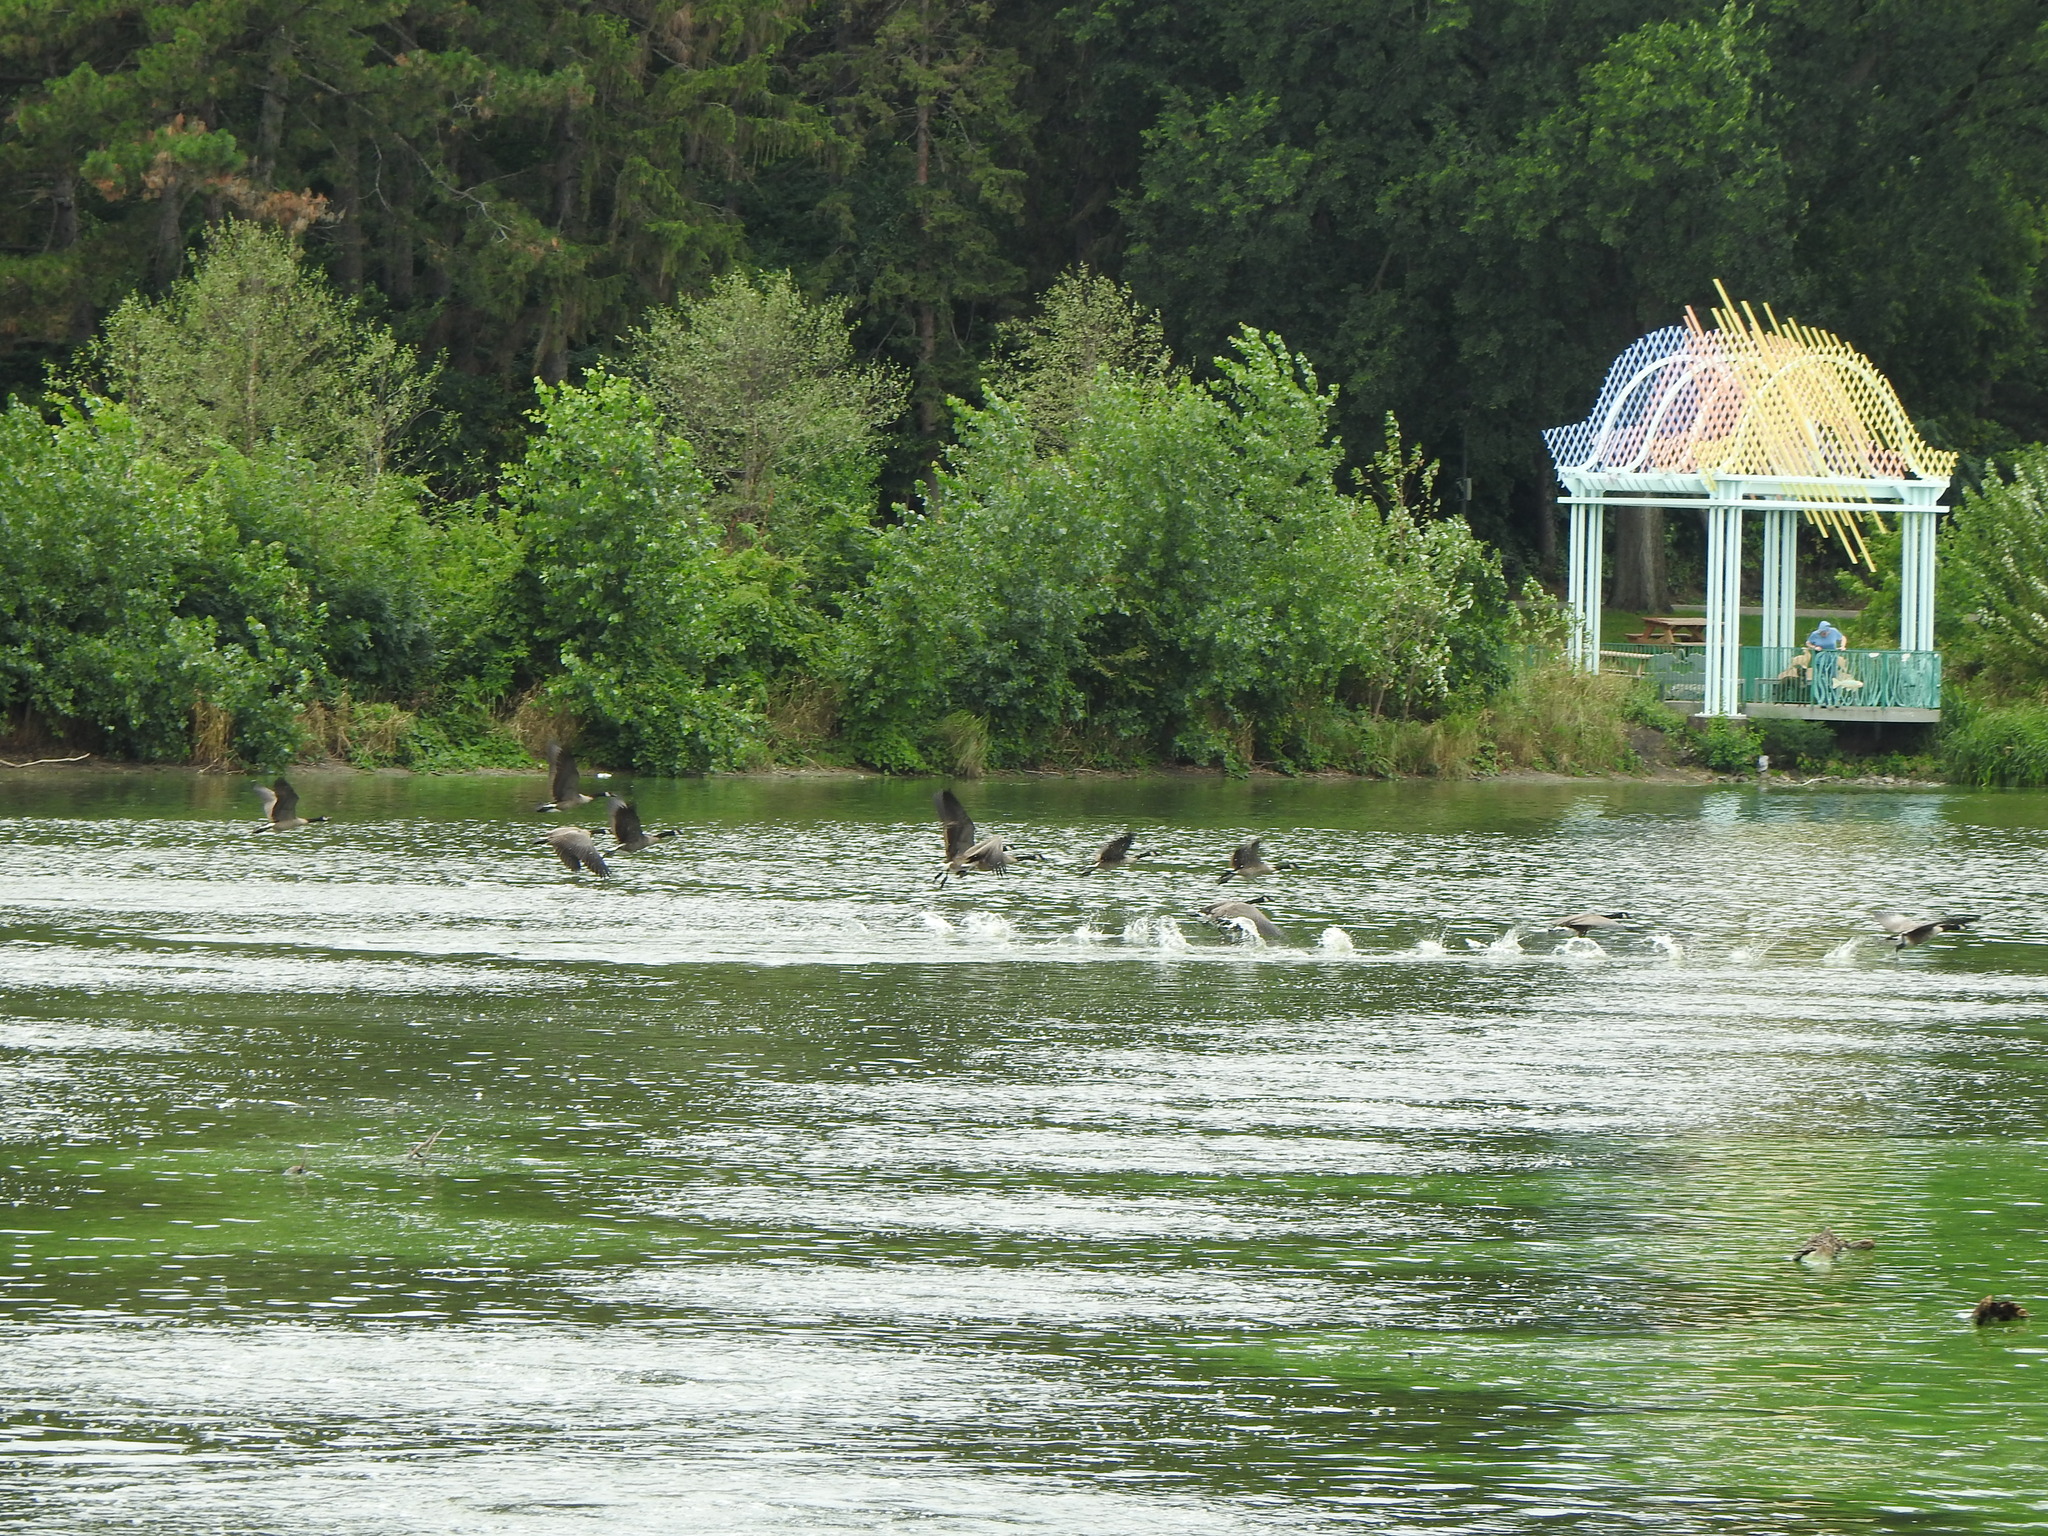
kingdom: Animalia
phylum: Chordata
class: Aves
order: Anseriformes
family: Anatidae
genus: Branta
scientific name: Branta canadensis
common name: Canada goose
